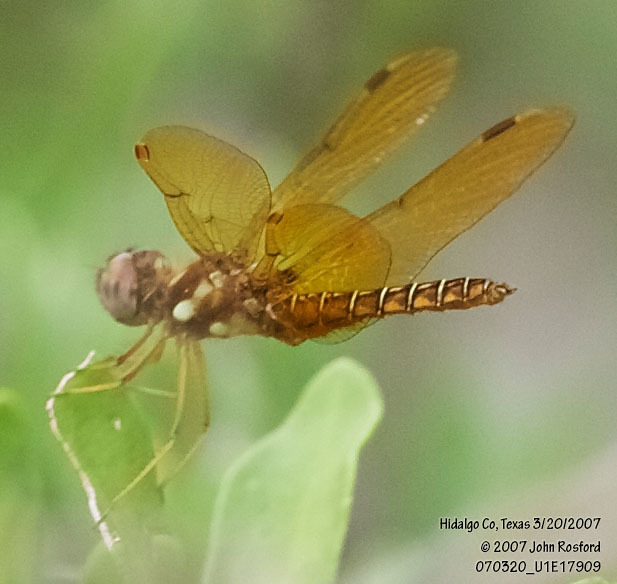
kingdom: Animalia
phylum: Arthropoda
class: Insecta
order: Odonata
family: Libellulidae
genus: Perithemis
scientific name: Perithemis tenera
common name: Eastern amberwing
